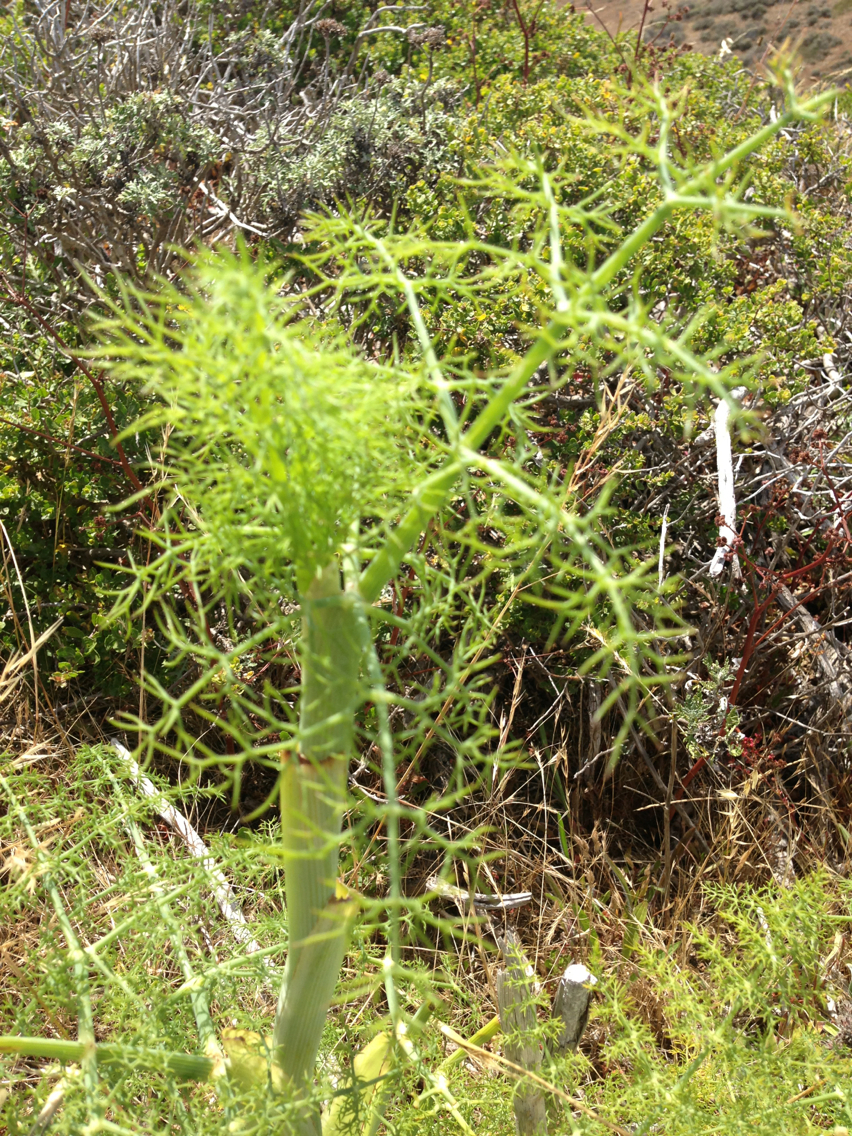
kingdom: Plantae
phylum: Tracheophyta
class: Magnoliopsida
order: Apiales
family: Apiaceae
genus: Foeniculum
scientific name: Foeniculum vulgare
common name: Fennel
